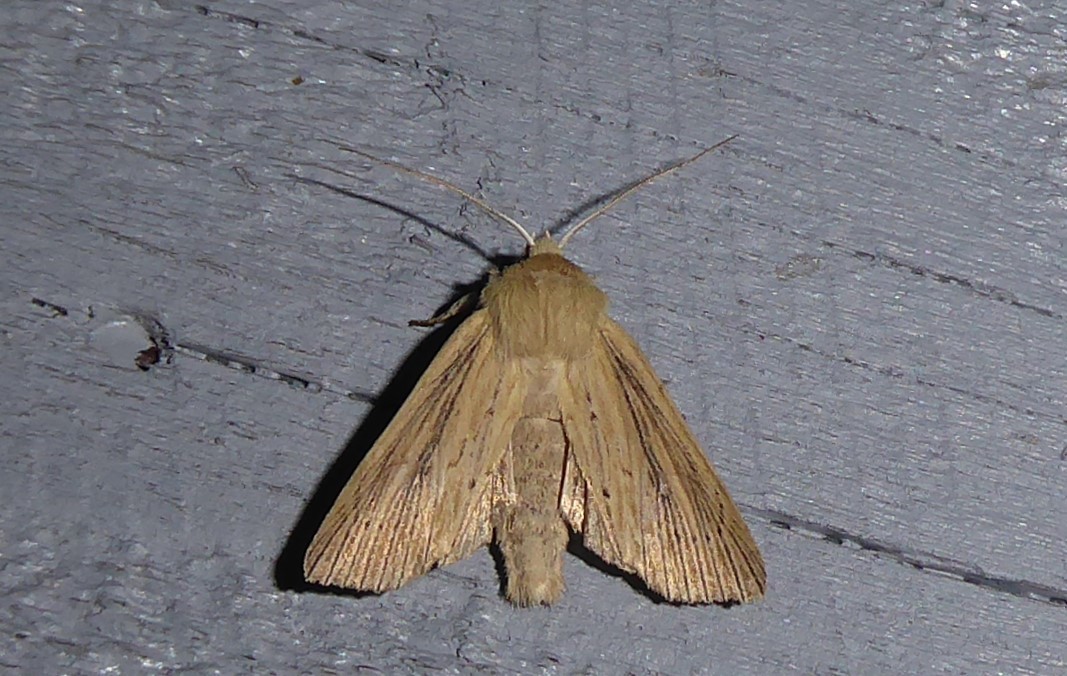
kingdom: Animalia
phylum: Arthropoda
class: Insecta
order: Lepidoptera
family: Noctuidae
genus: Ichneutica
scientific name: Ichneutica arotis
